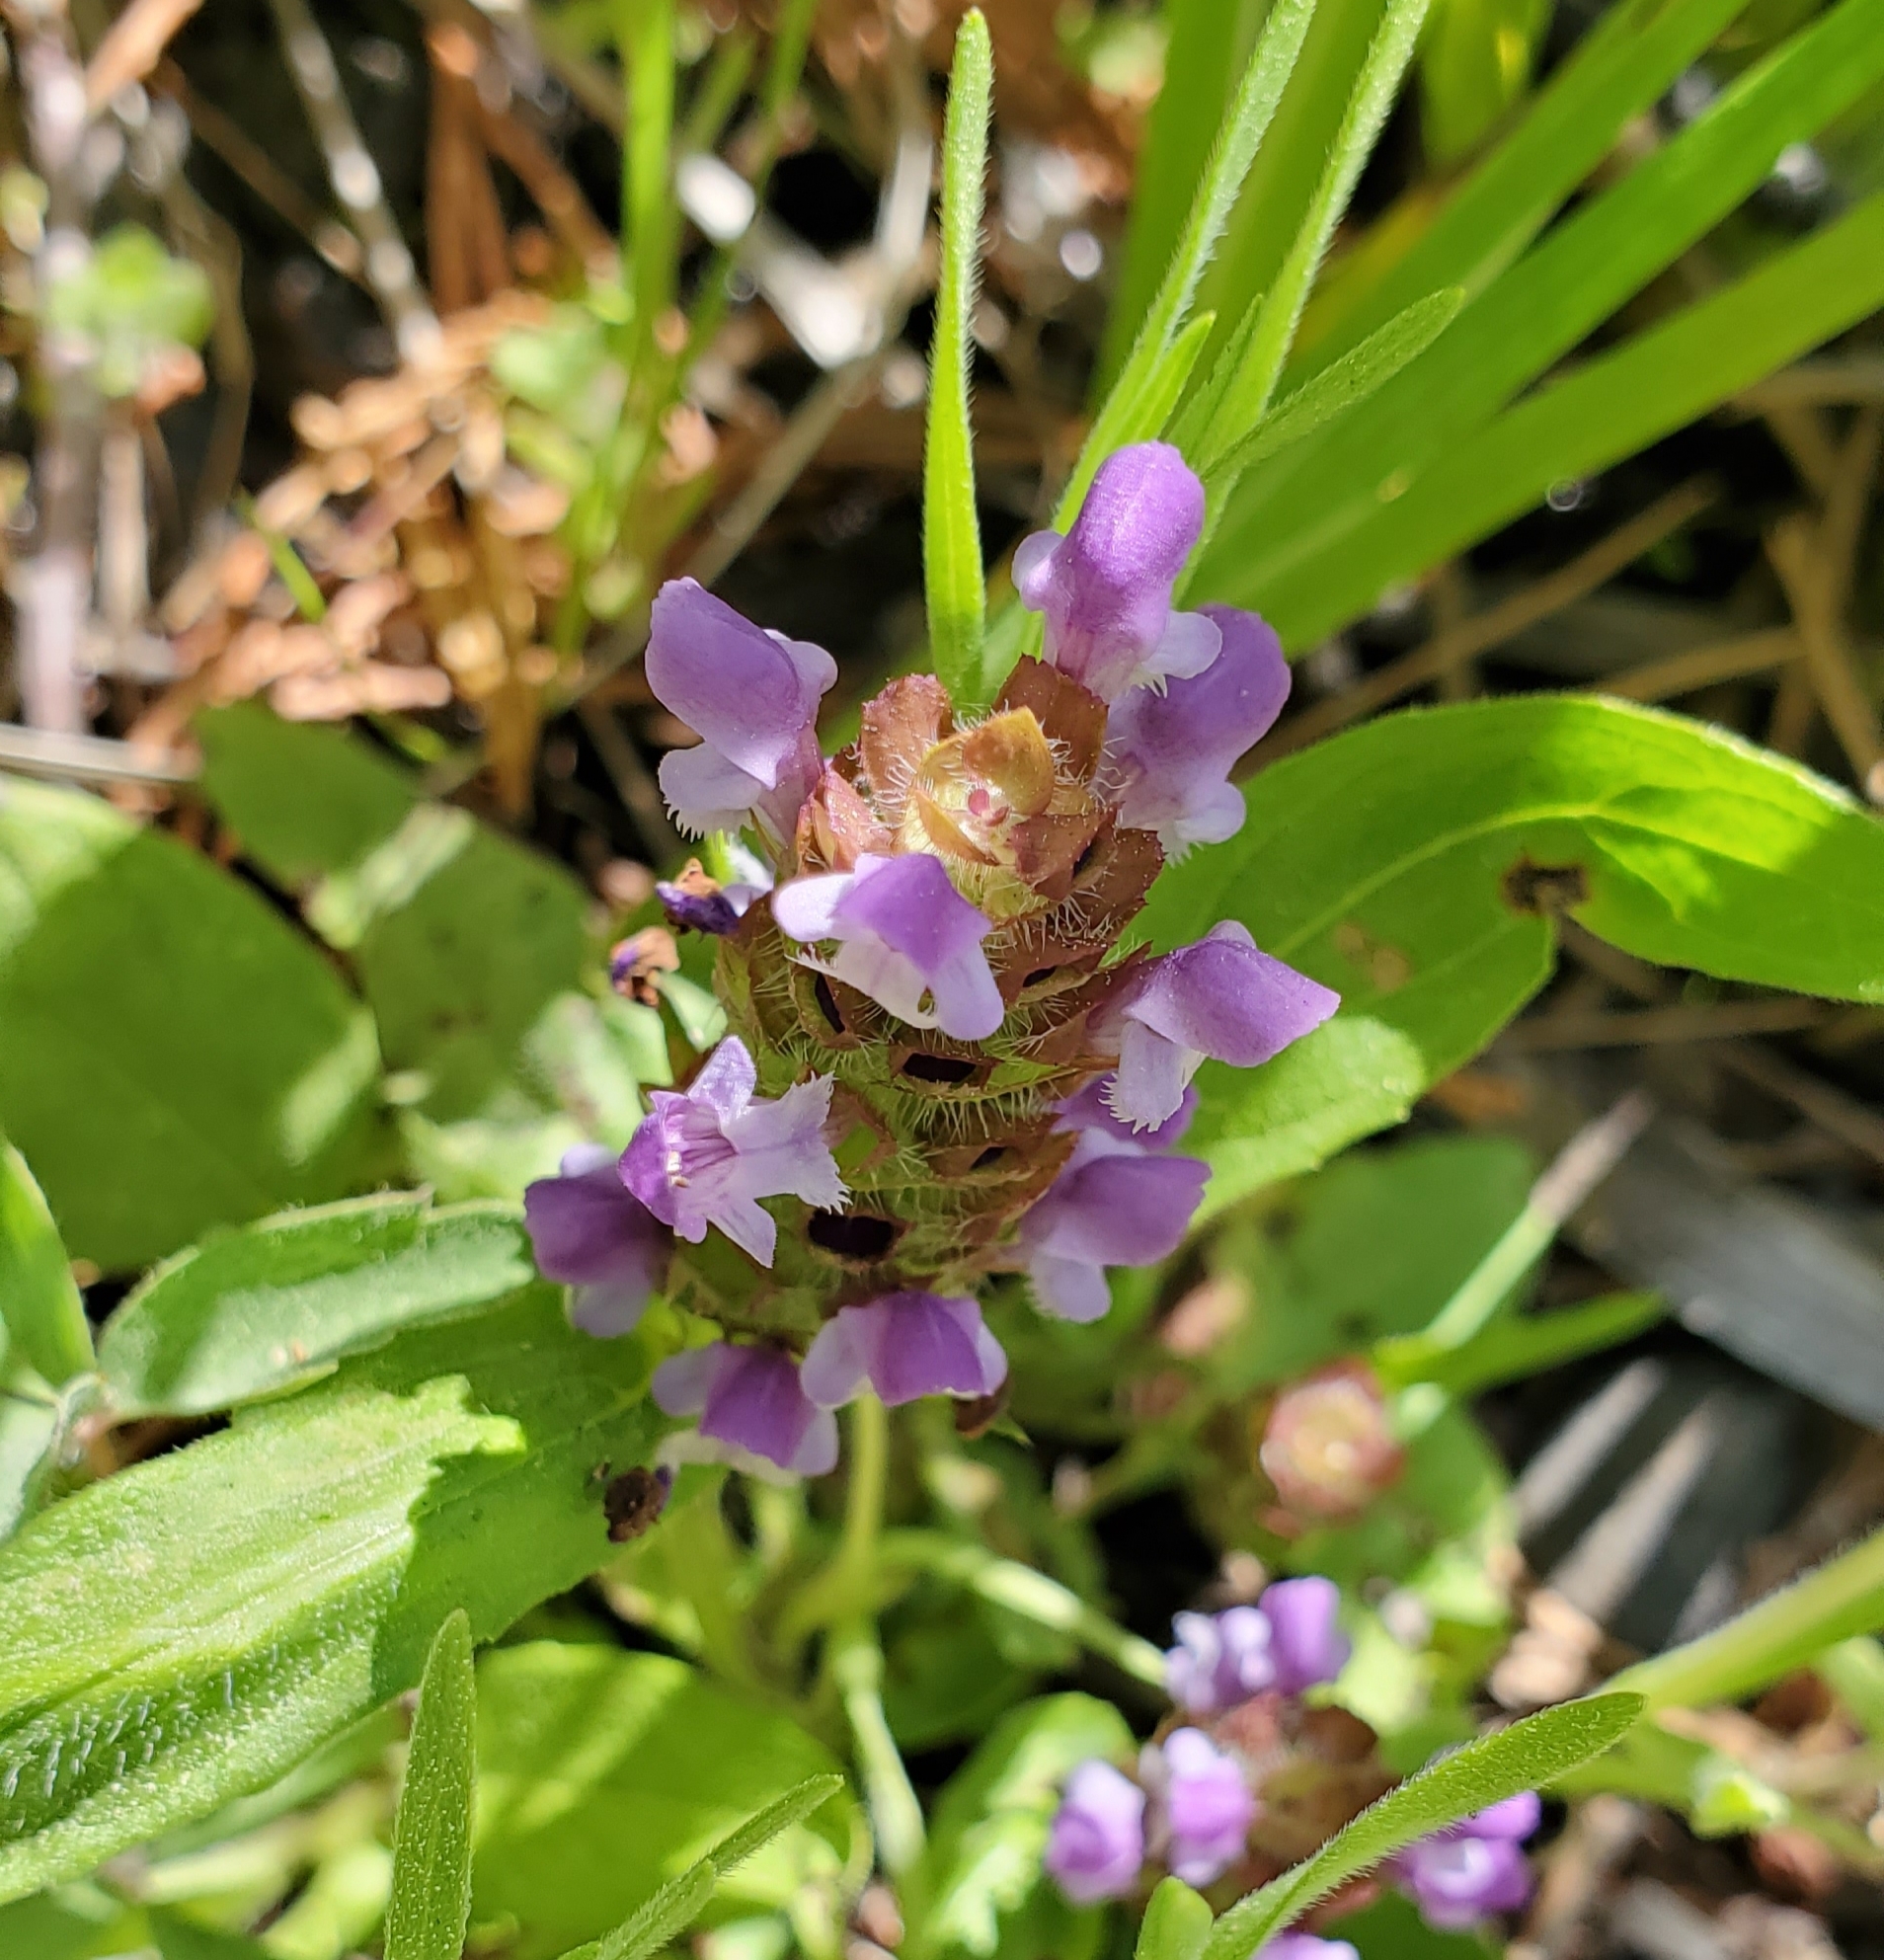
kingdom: Plantae
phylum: Tracheophyta
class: Magnoliopsida
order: Lamiales
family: Lamiaceae
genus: Prunella
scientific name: Prunella vulgaris
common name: Heal-all
